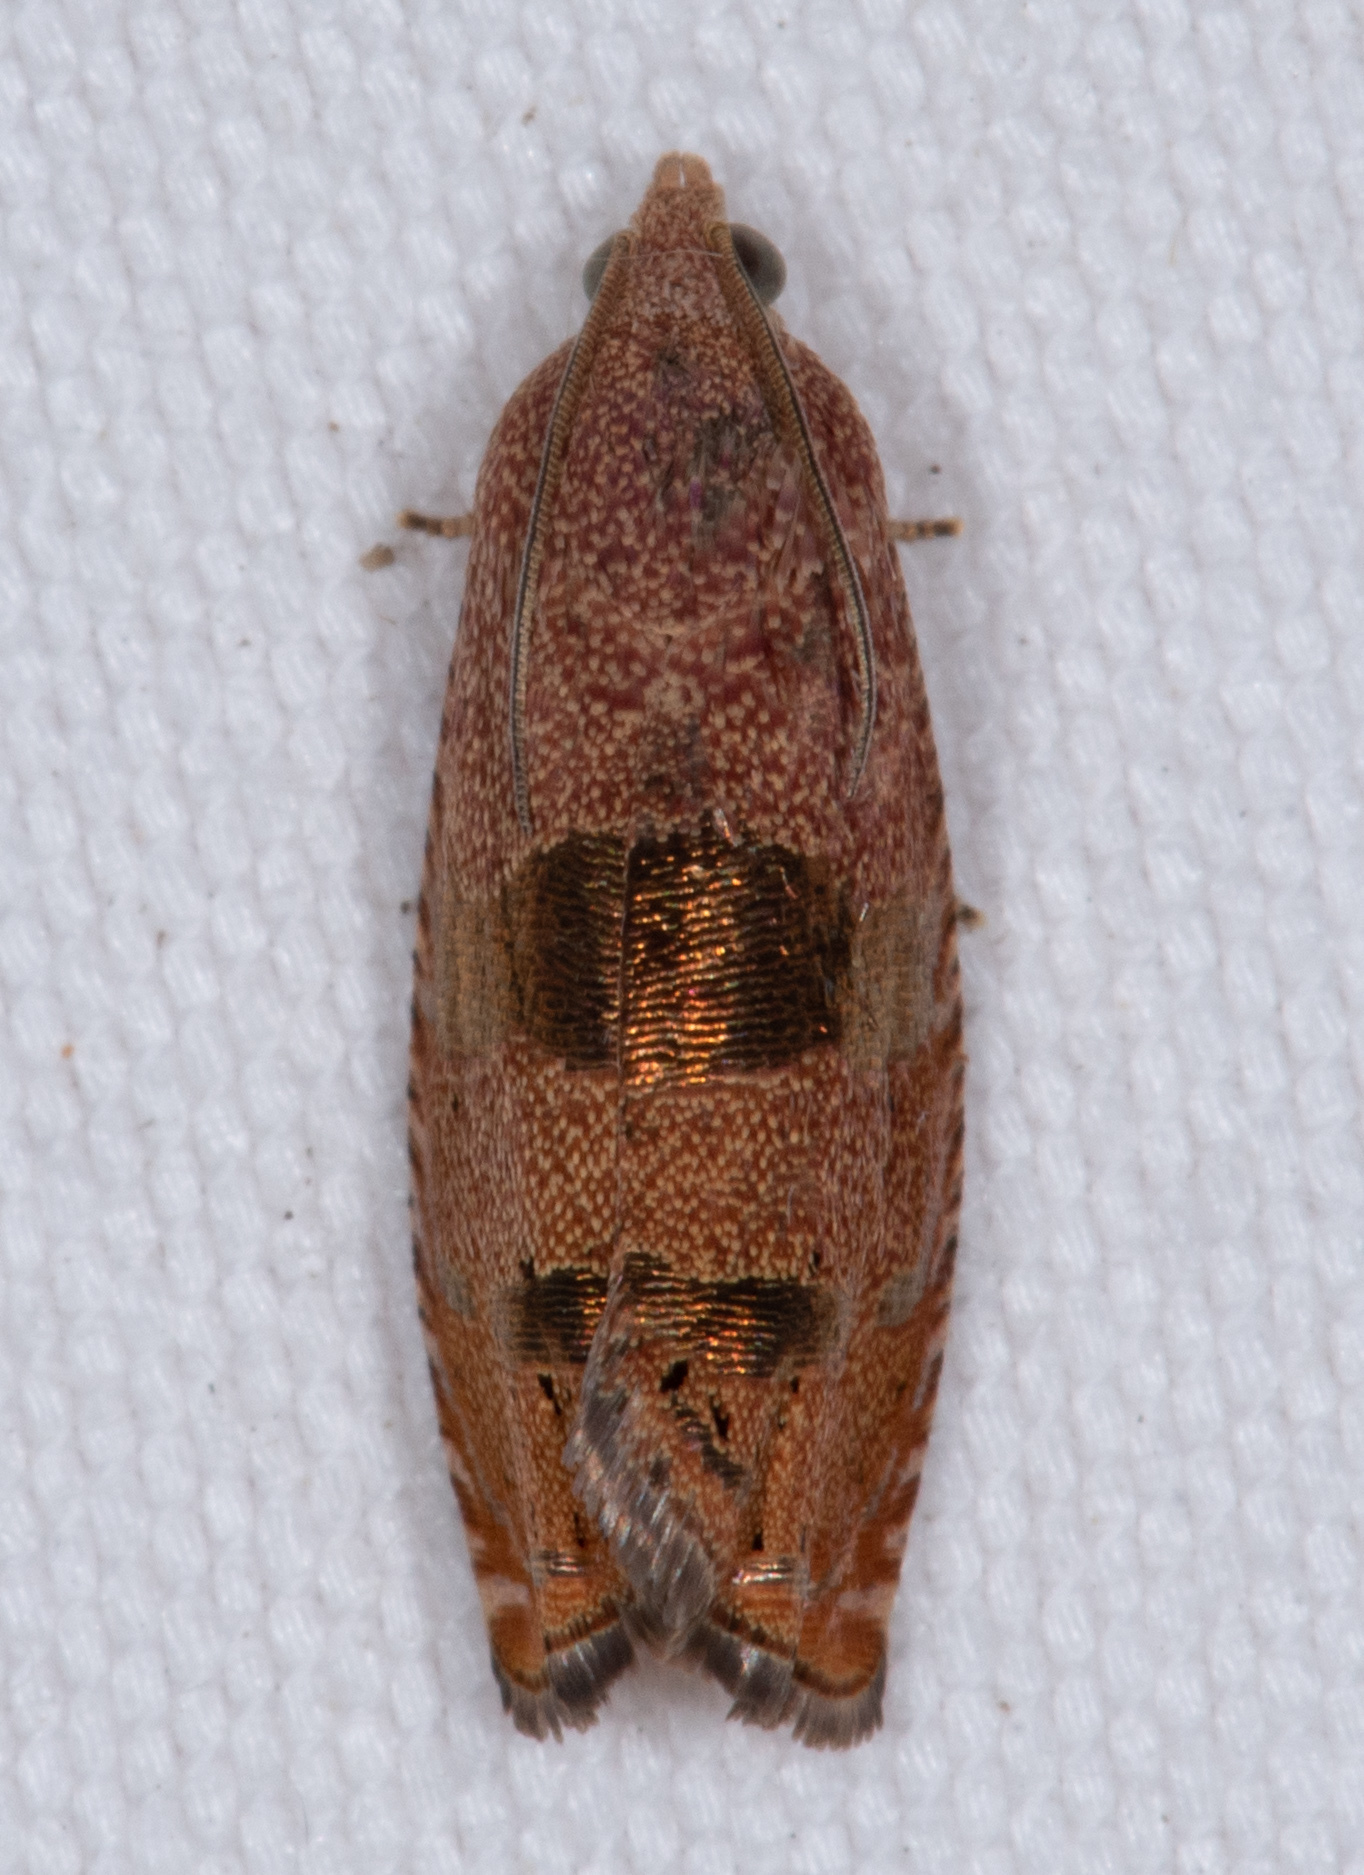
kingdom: Animalia
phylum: Arthropoda
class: Insecta
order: Lepidoptera
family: Tortricidae
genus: Cydia
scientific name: Cydia latiferreana
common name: Filbertworm moth
